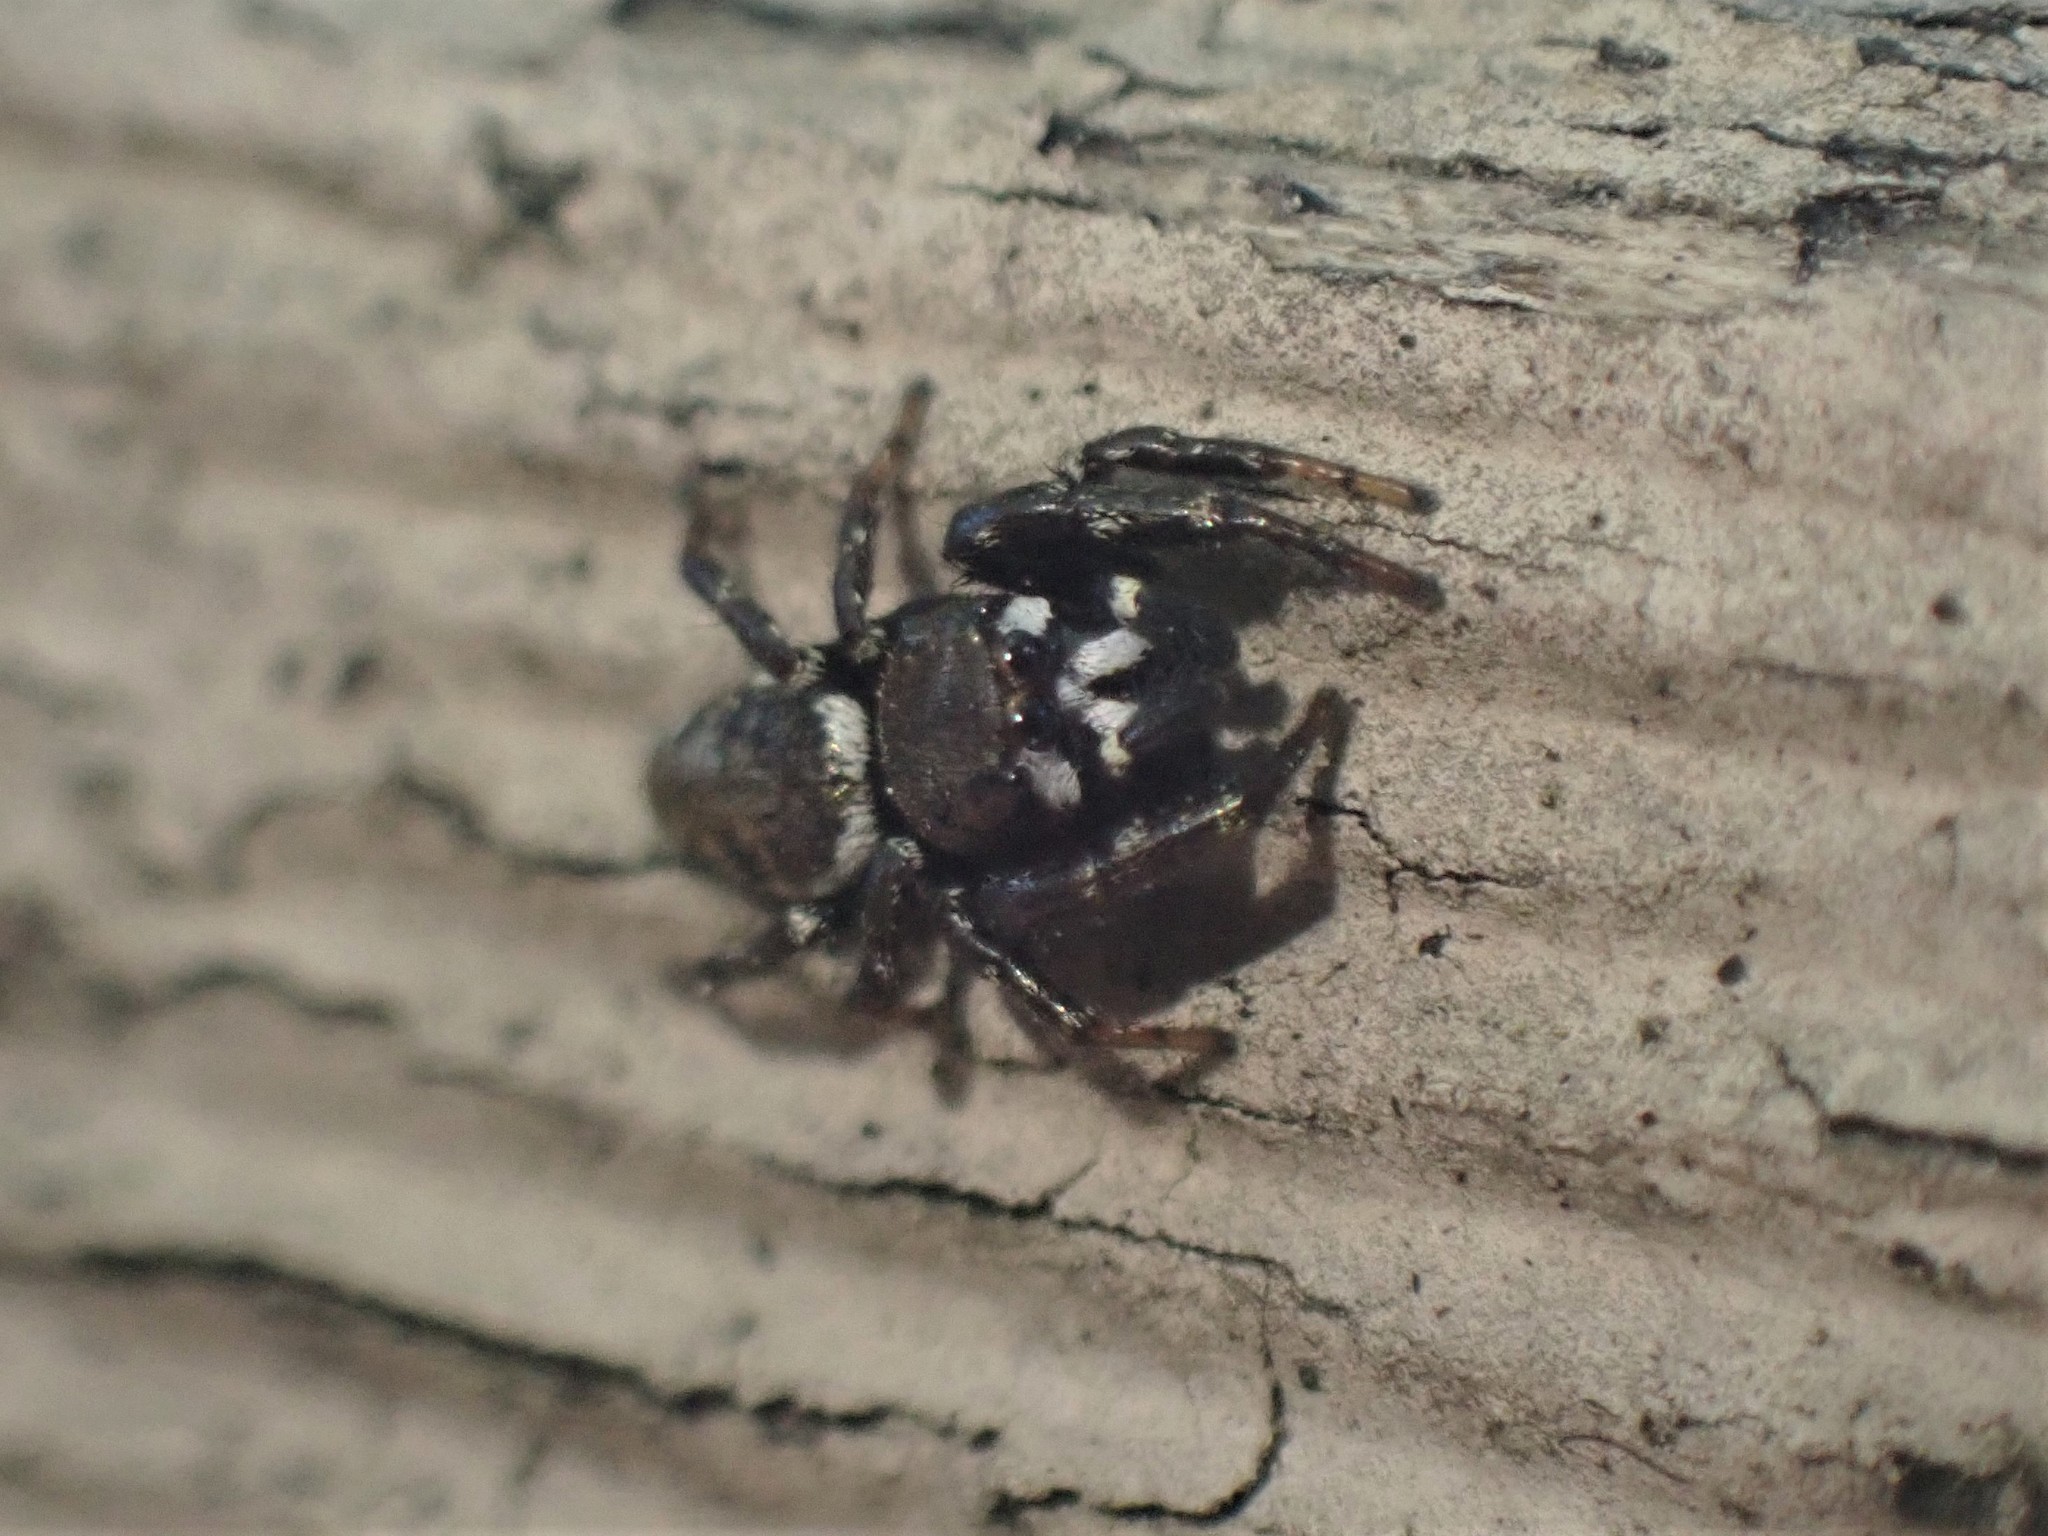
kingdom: Animalia
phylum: Arthropoda
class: Arachnida
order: Araneae
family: Salticidae
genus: Metaphidippus
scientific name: Metaphidippus manni
